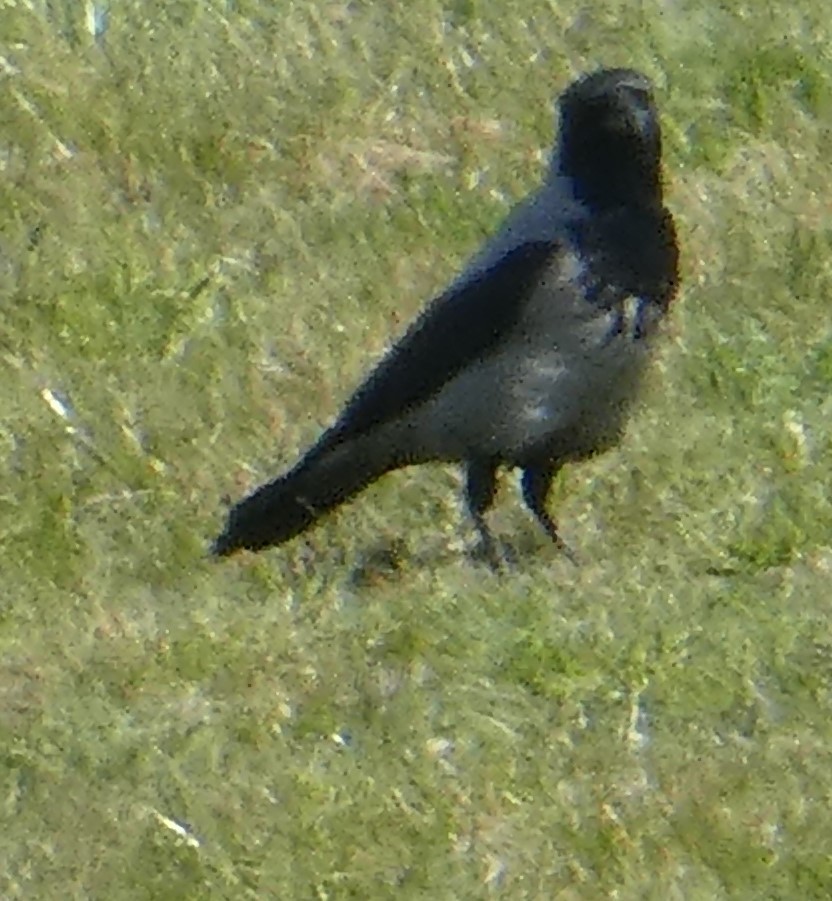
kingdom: Animalia
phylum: Chordata
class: Aves
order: Passeriformes
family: Corvidae
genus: Corvus
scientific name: Corvus cornix
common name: Hooded crow
